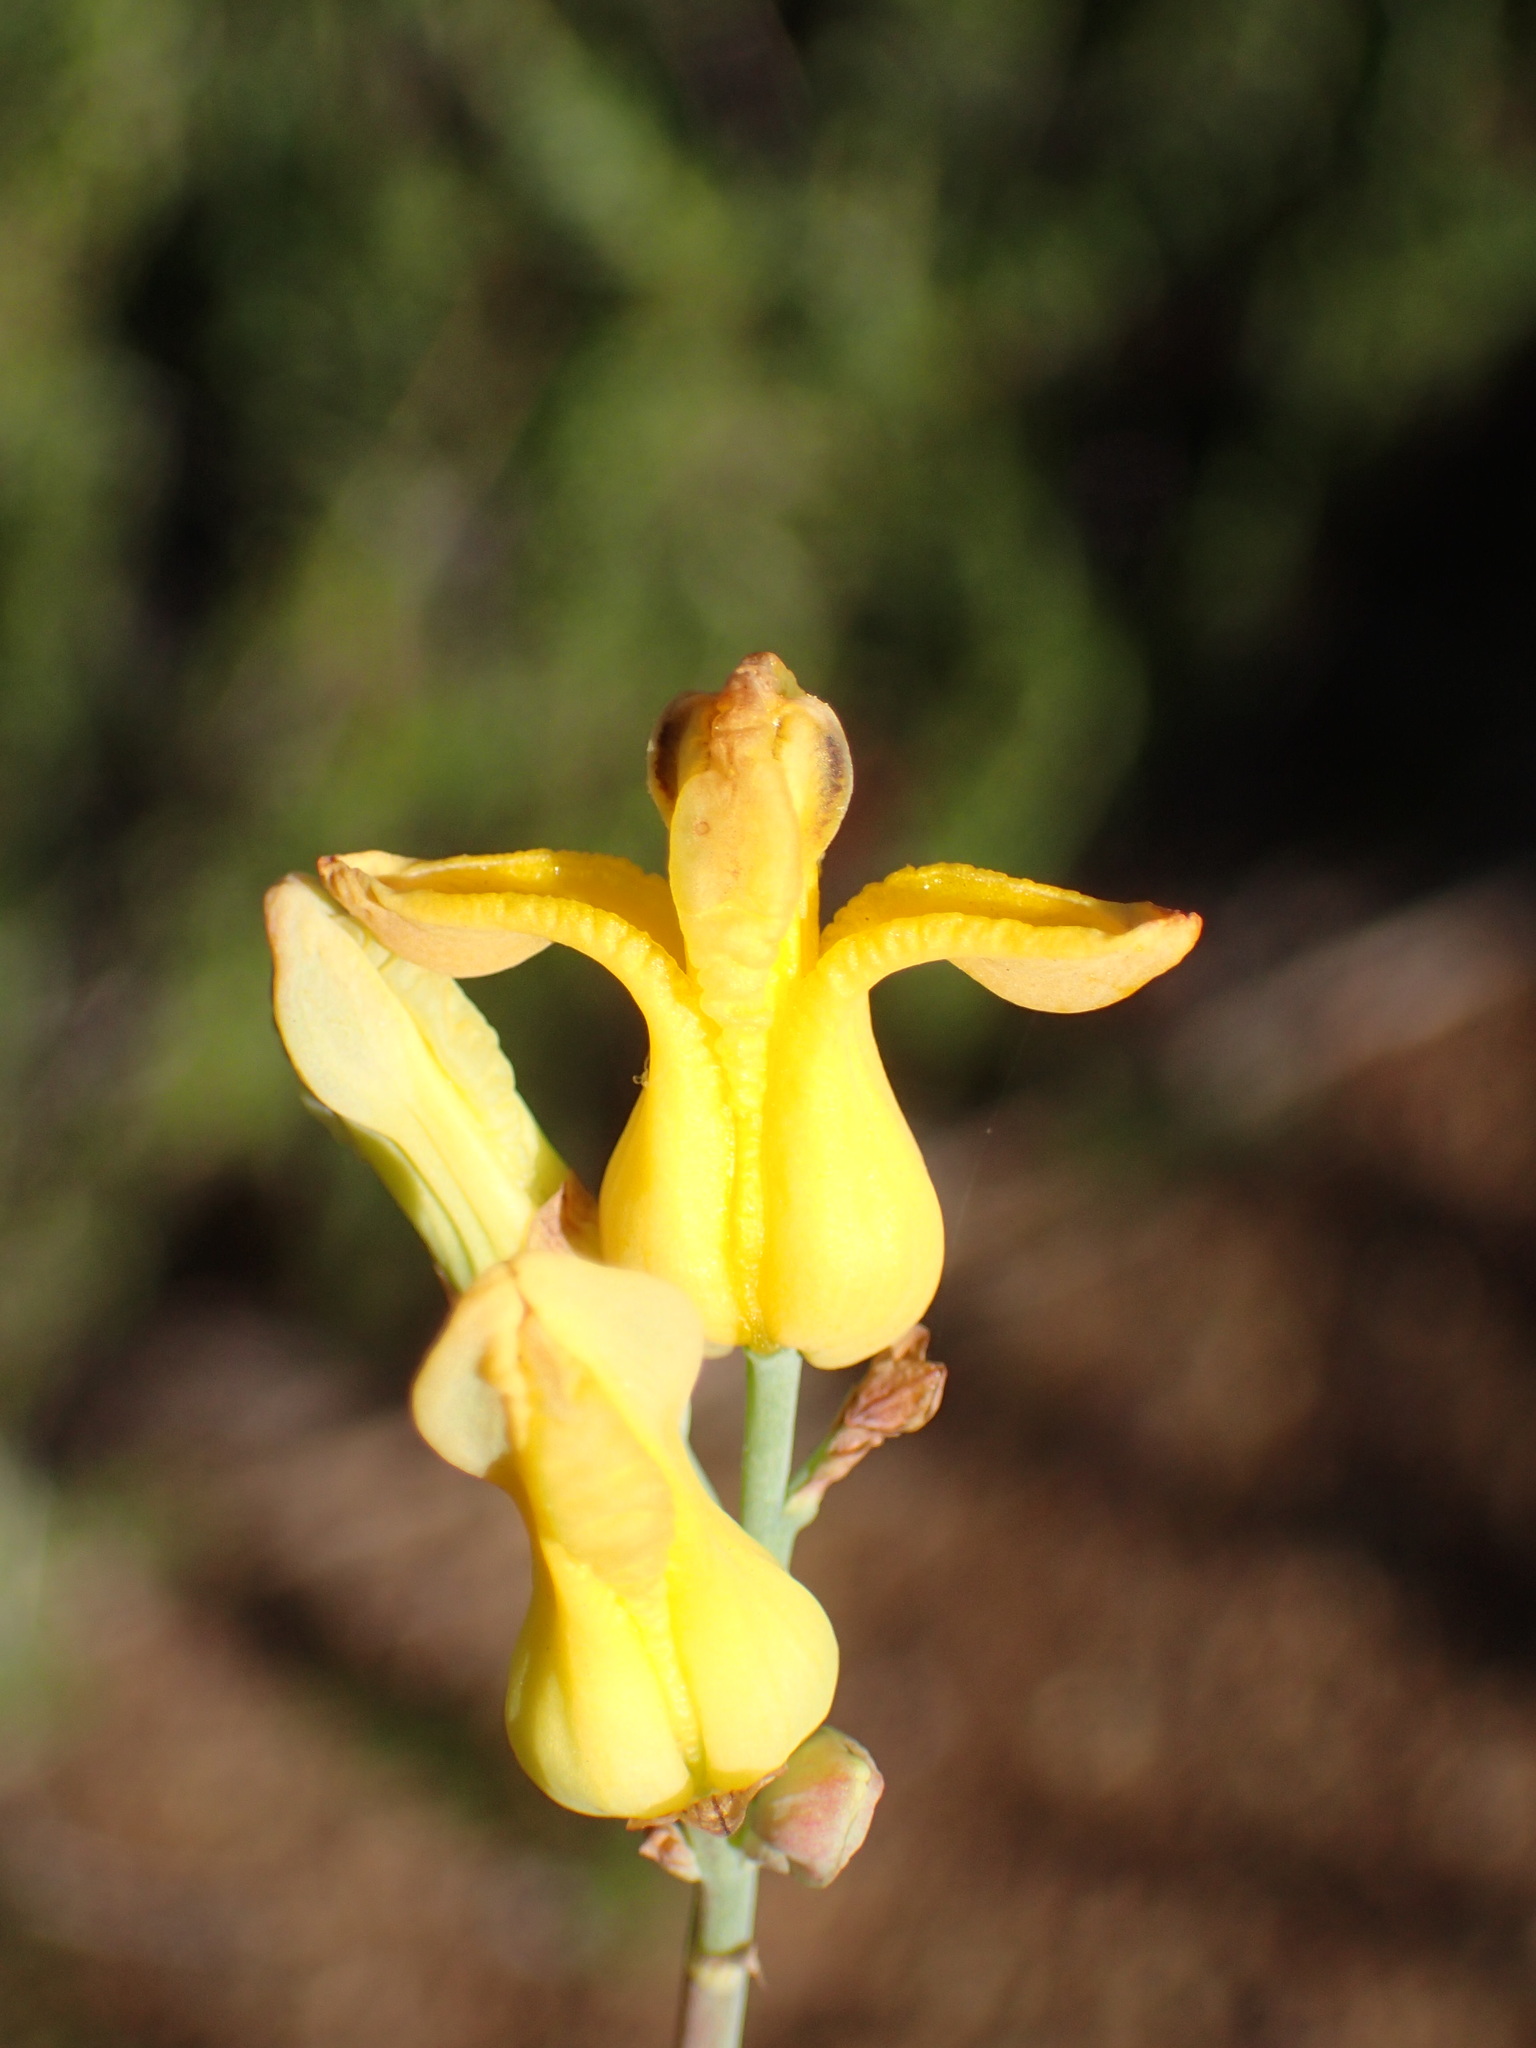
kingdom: Plantae
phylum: Tracheophyta
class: Magnoliopsida
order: Ranunculales
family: Papaveraceae
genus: Ehrendorferia
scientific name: Ehrendorferia chrysantha
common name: Golden eardrops
